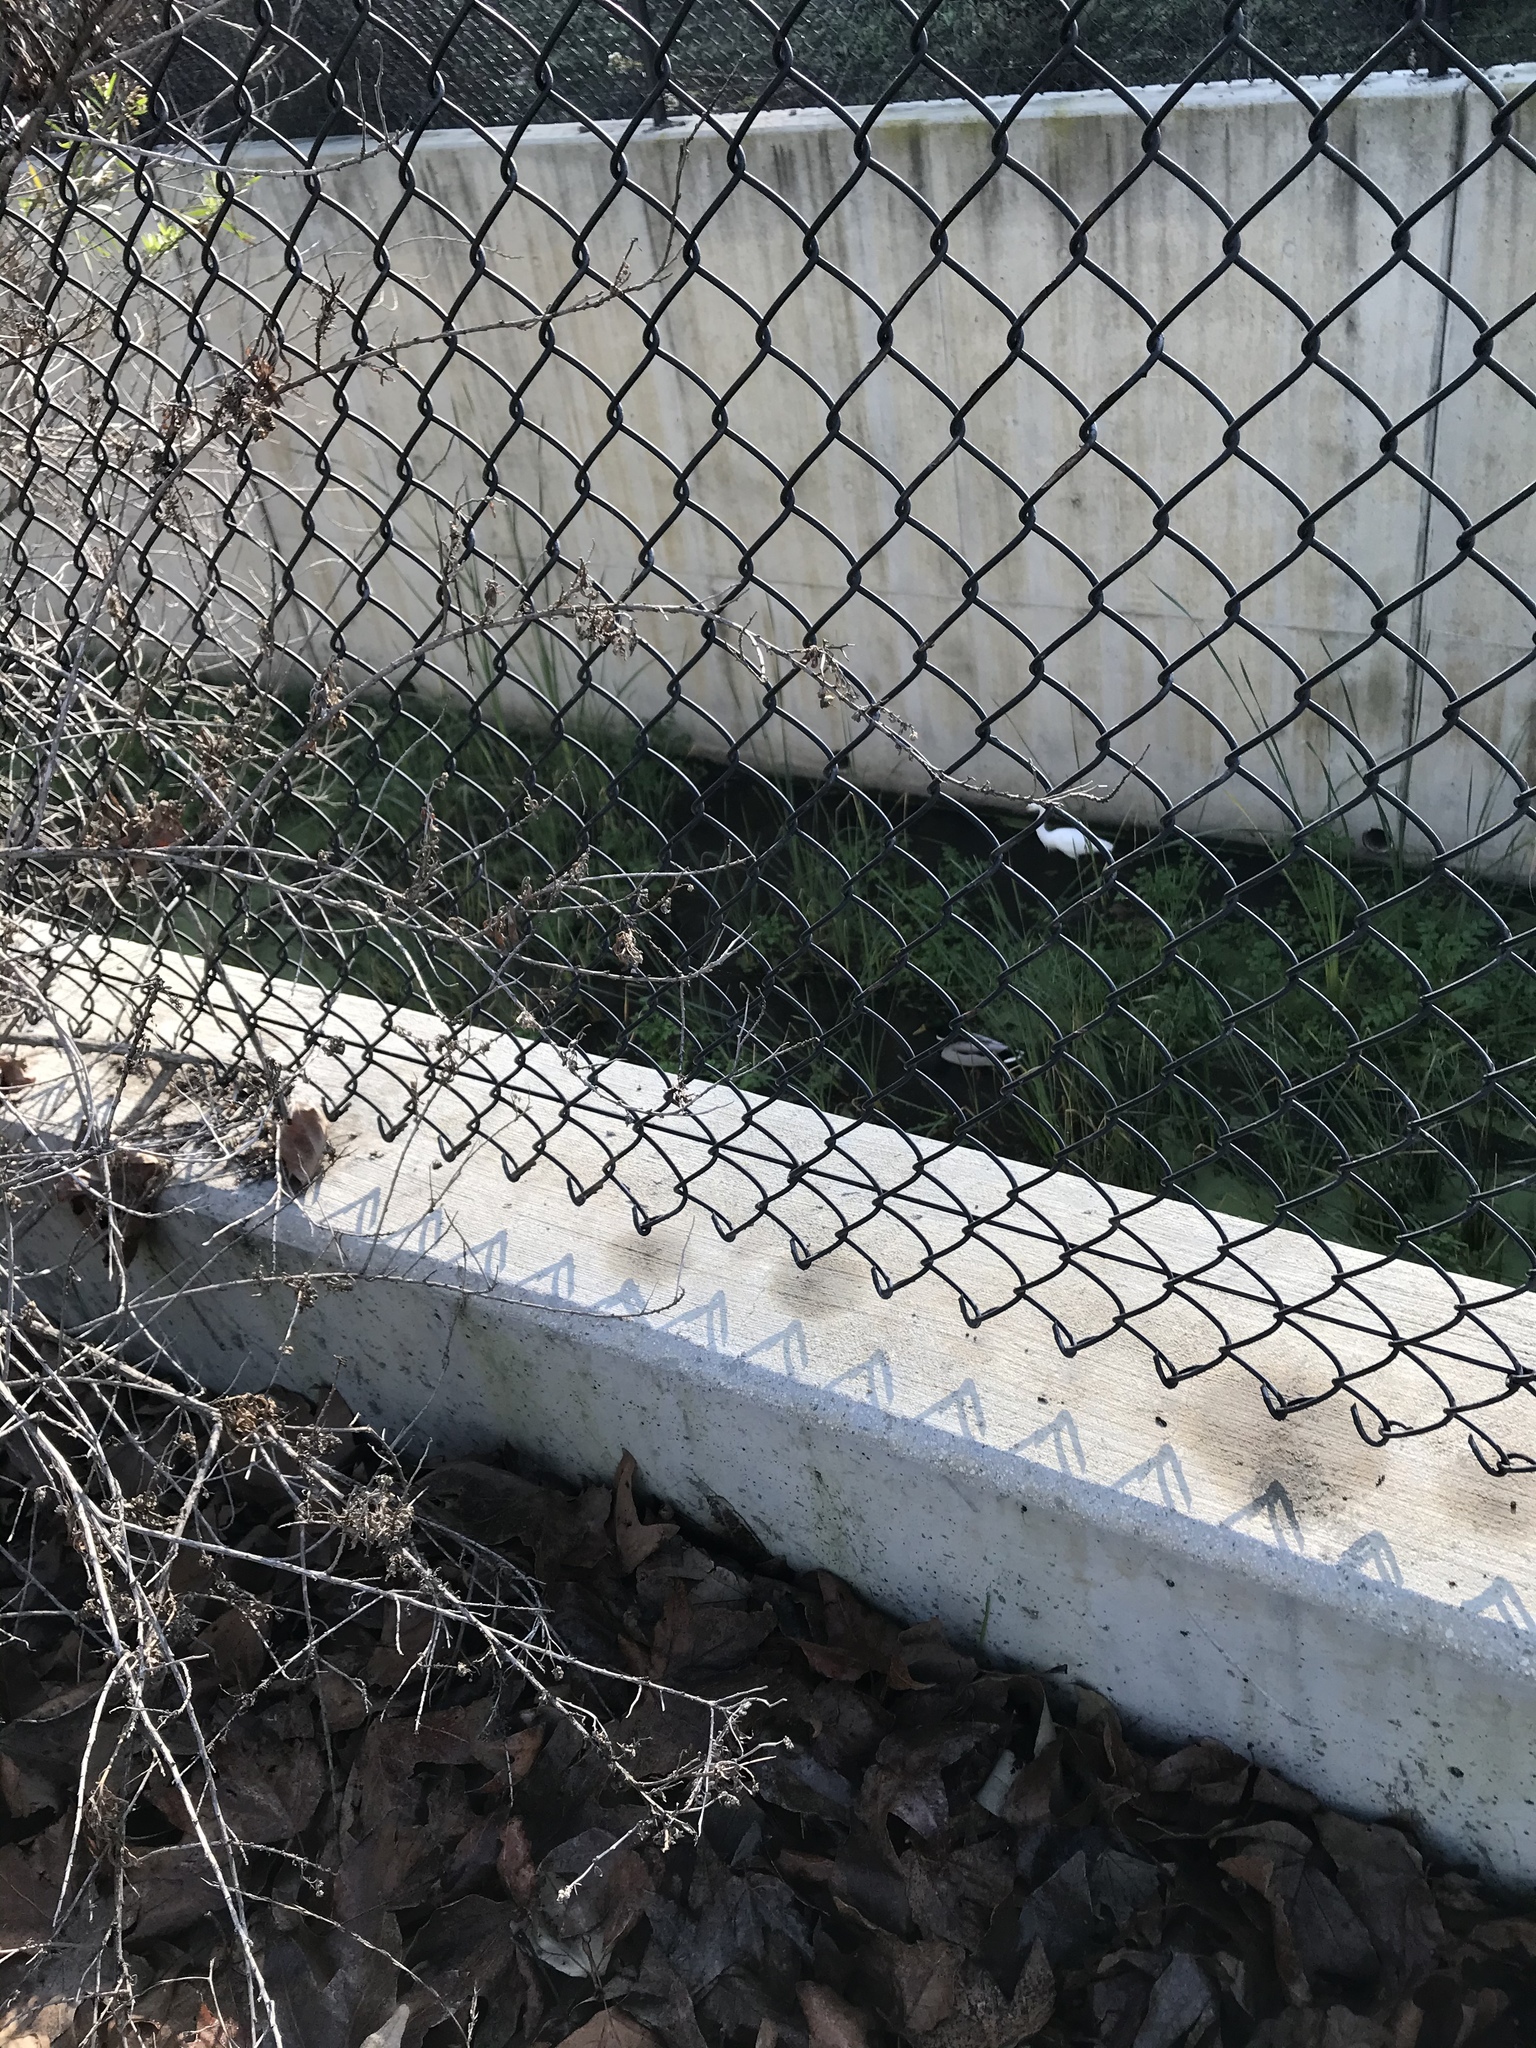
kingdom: Animalia
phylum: Chordata
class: Aves
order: Pelecaniformes
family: Ardeidae
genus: Egretta
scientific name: Egretta thula
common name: Snowy egret
